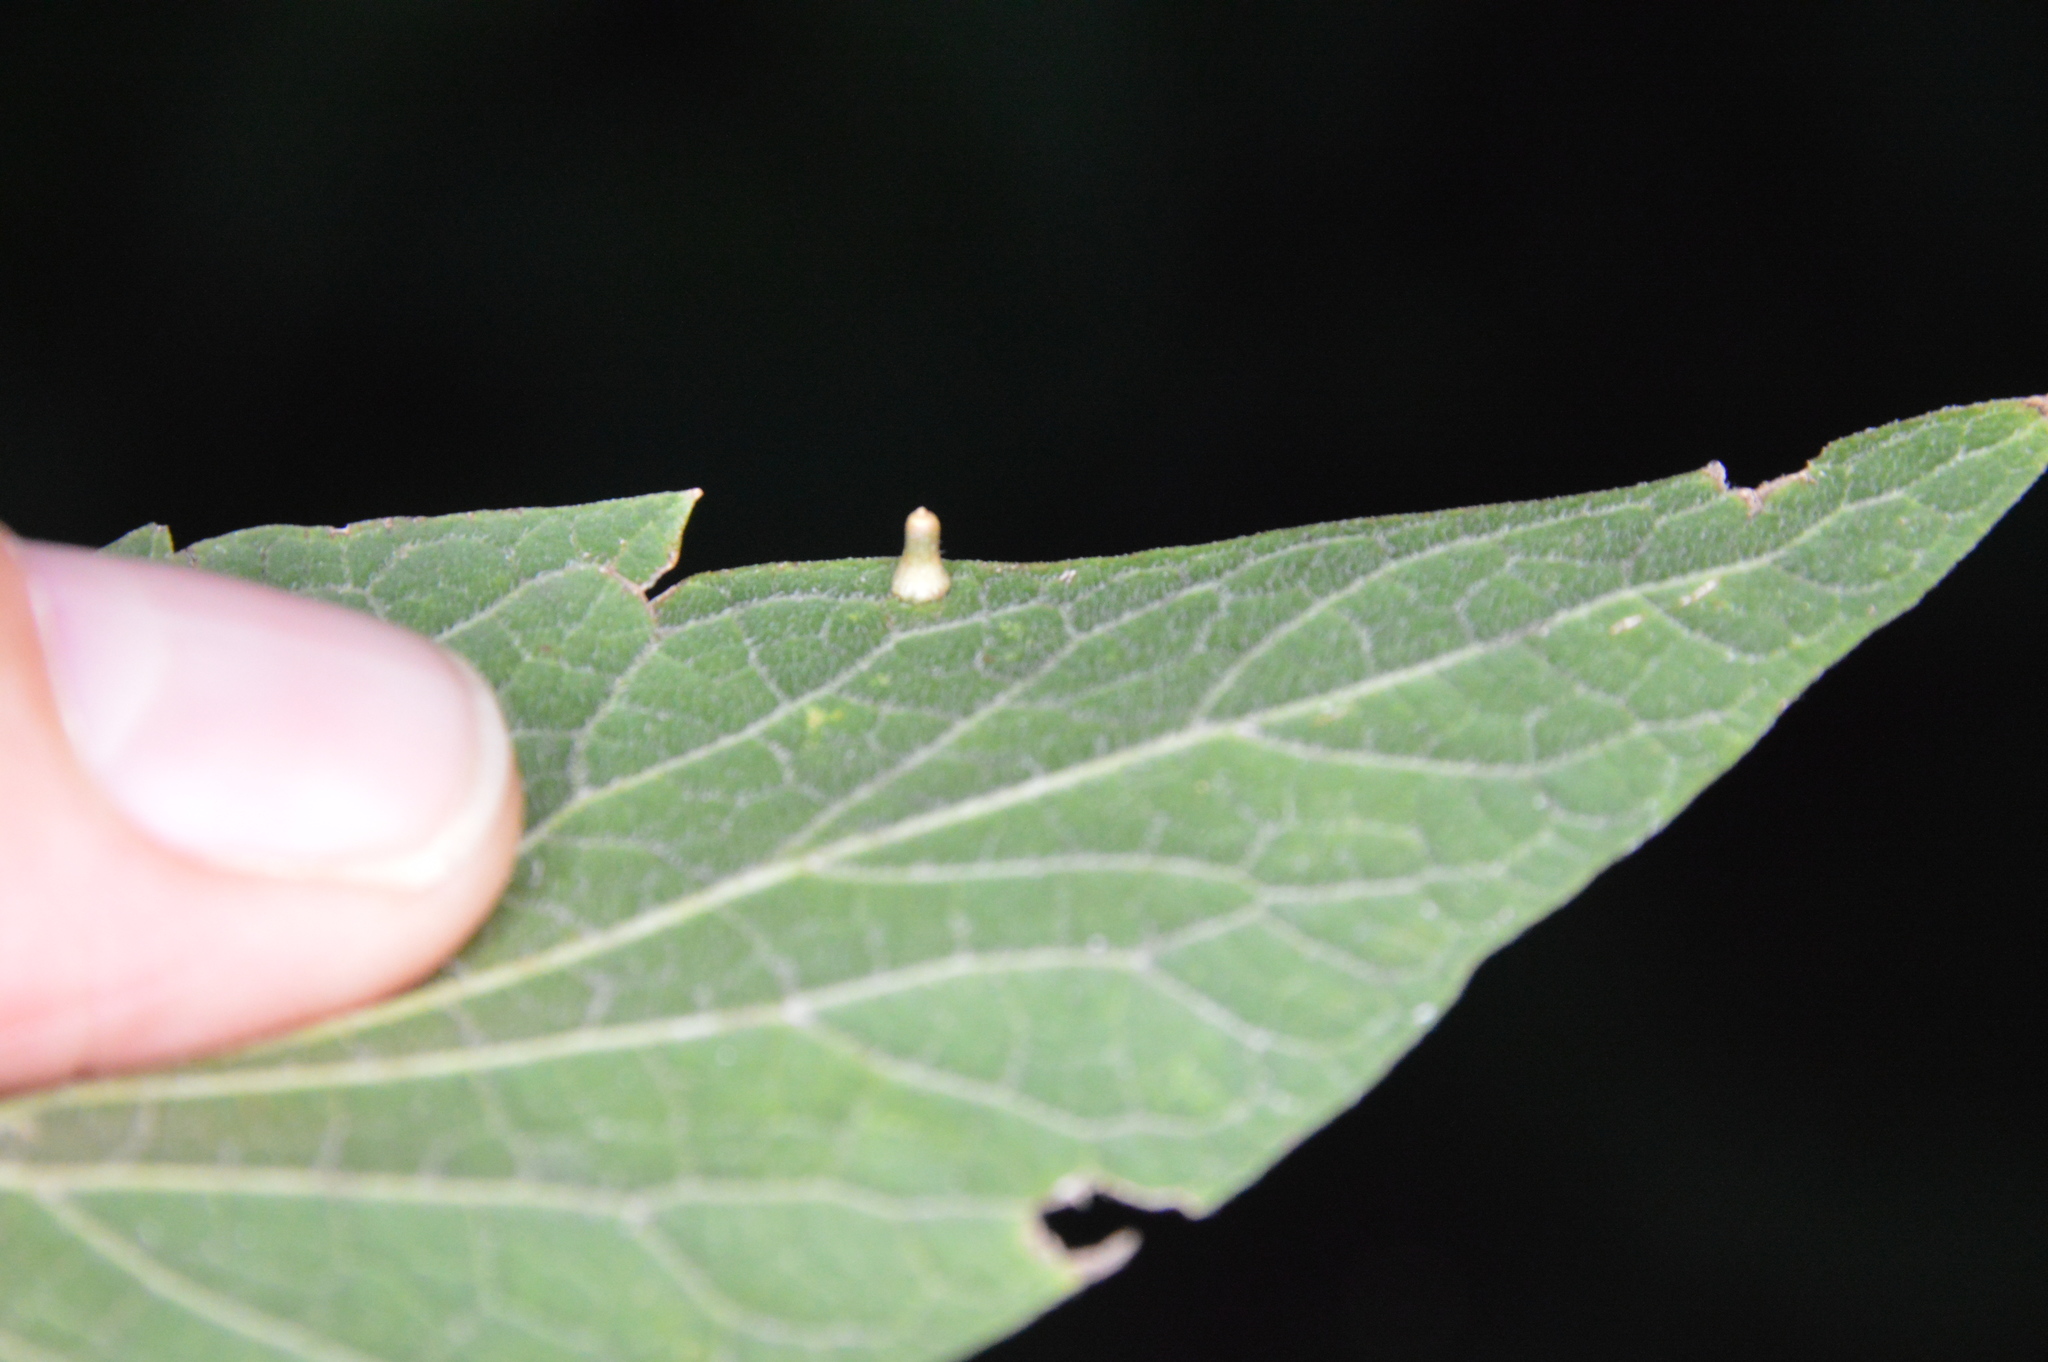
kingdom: Animalia
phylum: Arthropoda
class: Insecta
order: Diptera
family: Cecidomyiidae
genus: Celticecis
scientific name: Celticecis aciculata
